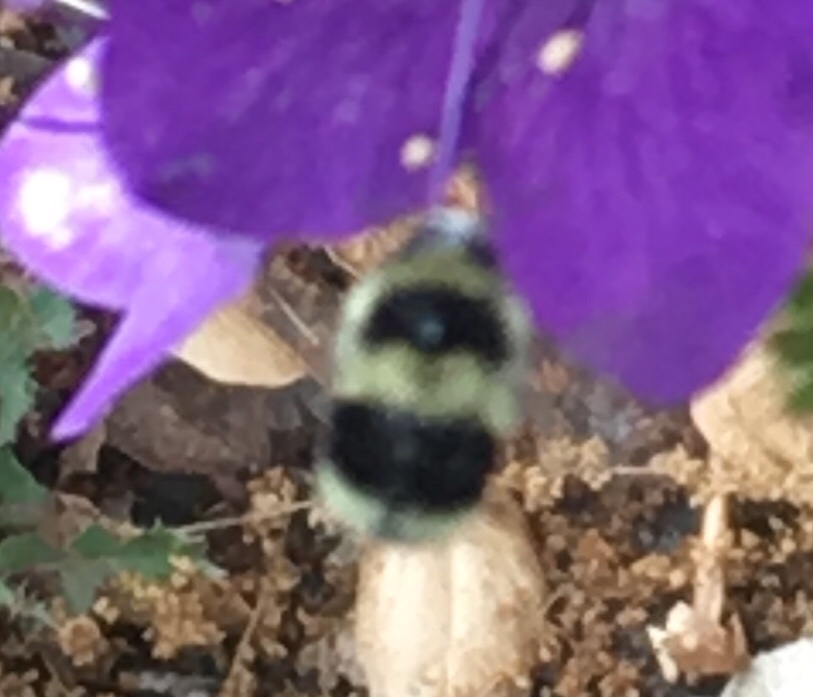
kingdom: Animalia
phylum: Arthropoda
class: Insecta
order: Hymenoptera
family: Apidae
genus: Bombus
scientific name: Bombus melanopygus
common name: Black tail bumble bee
